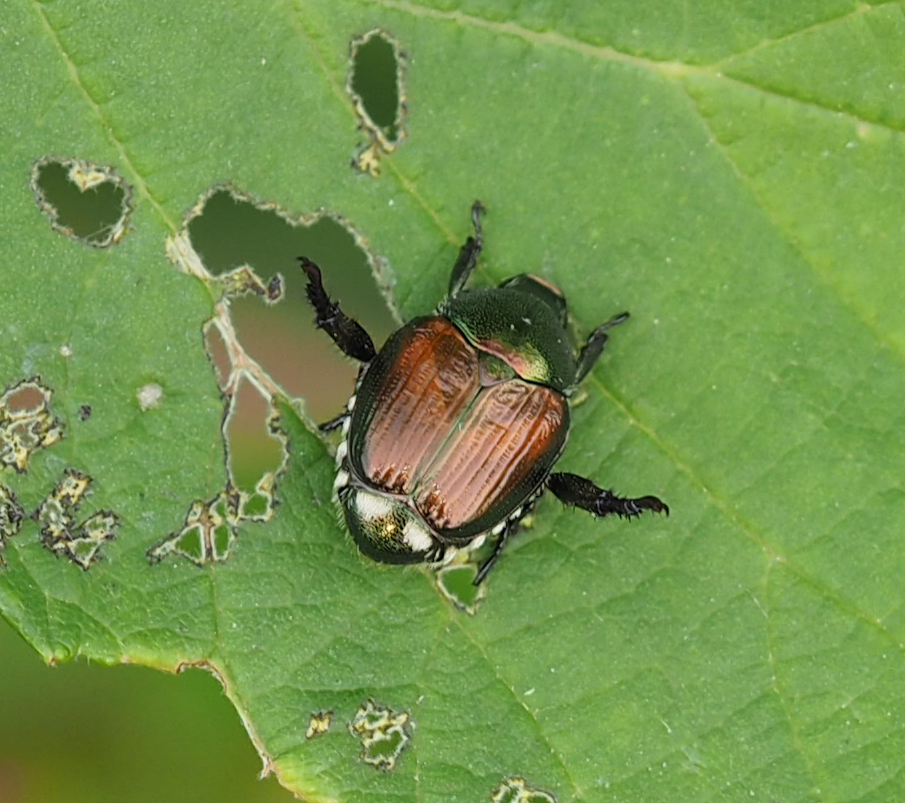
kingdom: Animalia
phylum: Arthropoda
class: Insecta
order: Coleoptera
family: Scarabaeidae
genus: Popillia
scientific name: Popillia japonica
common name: Japanese beetle
